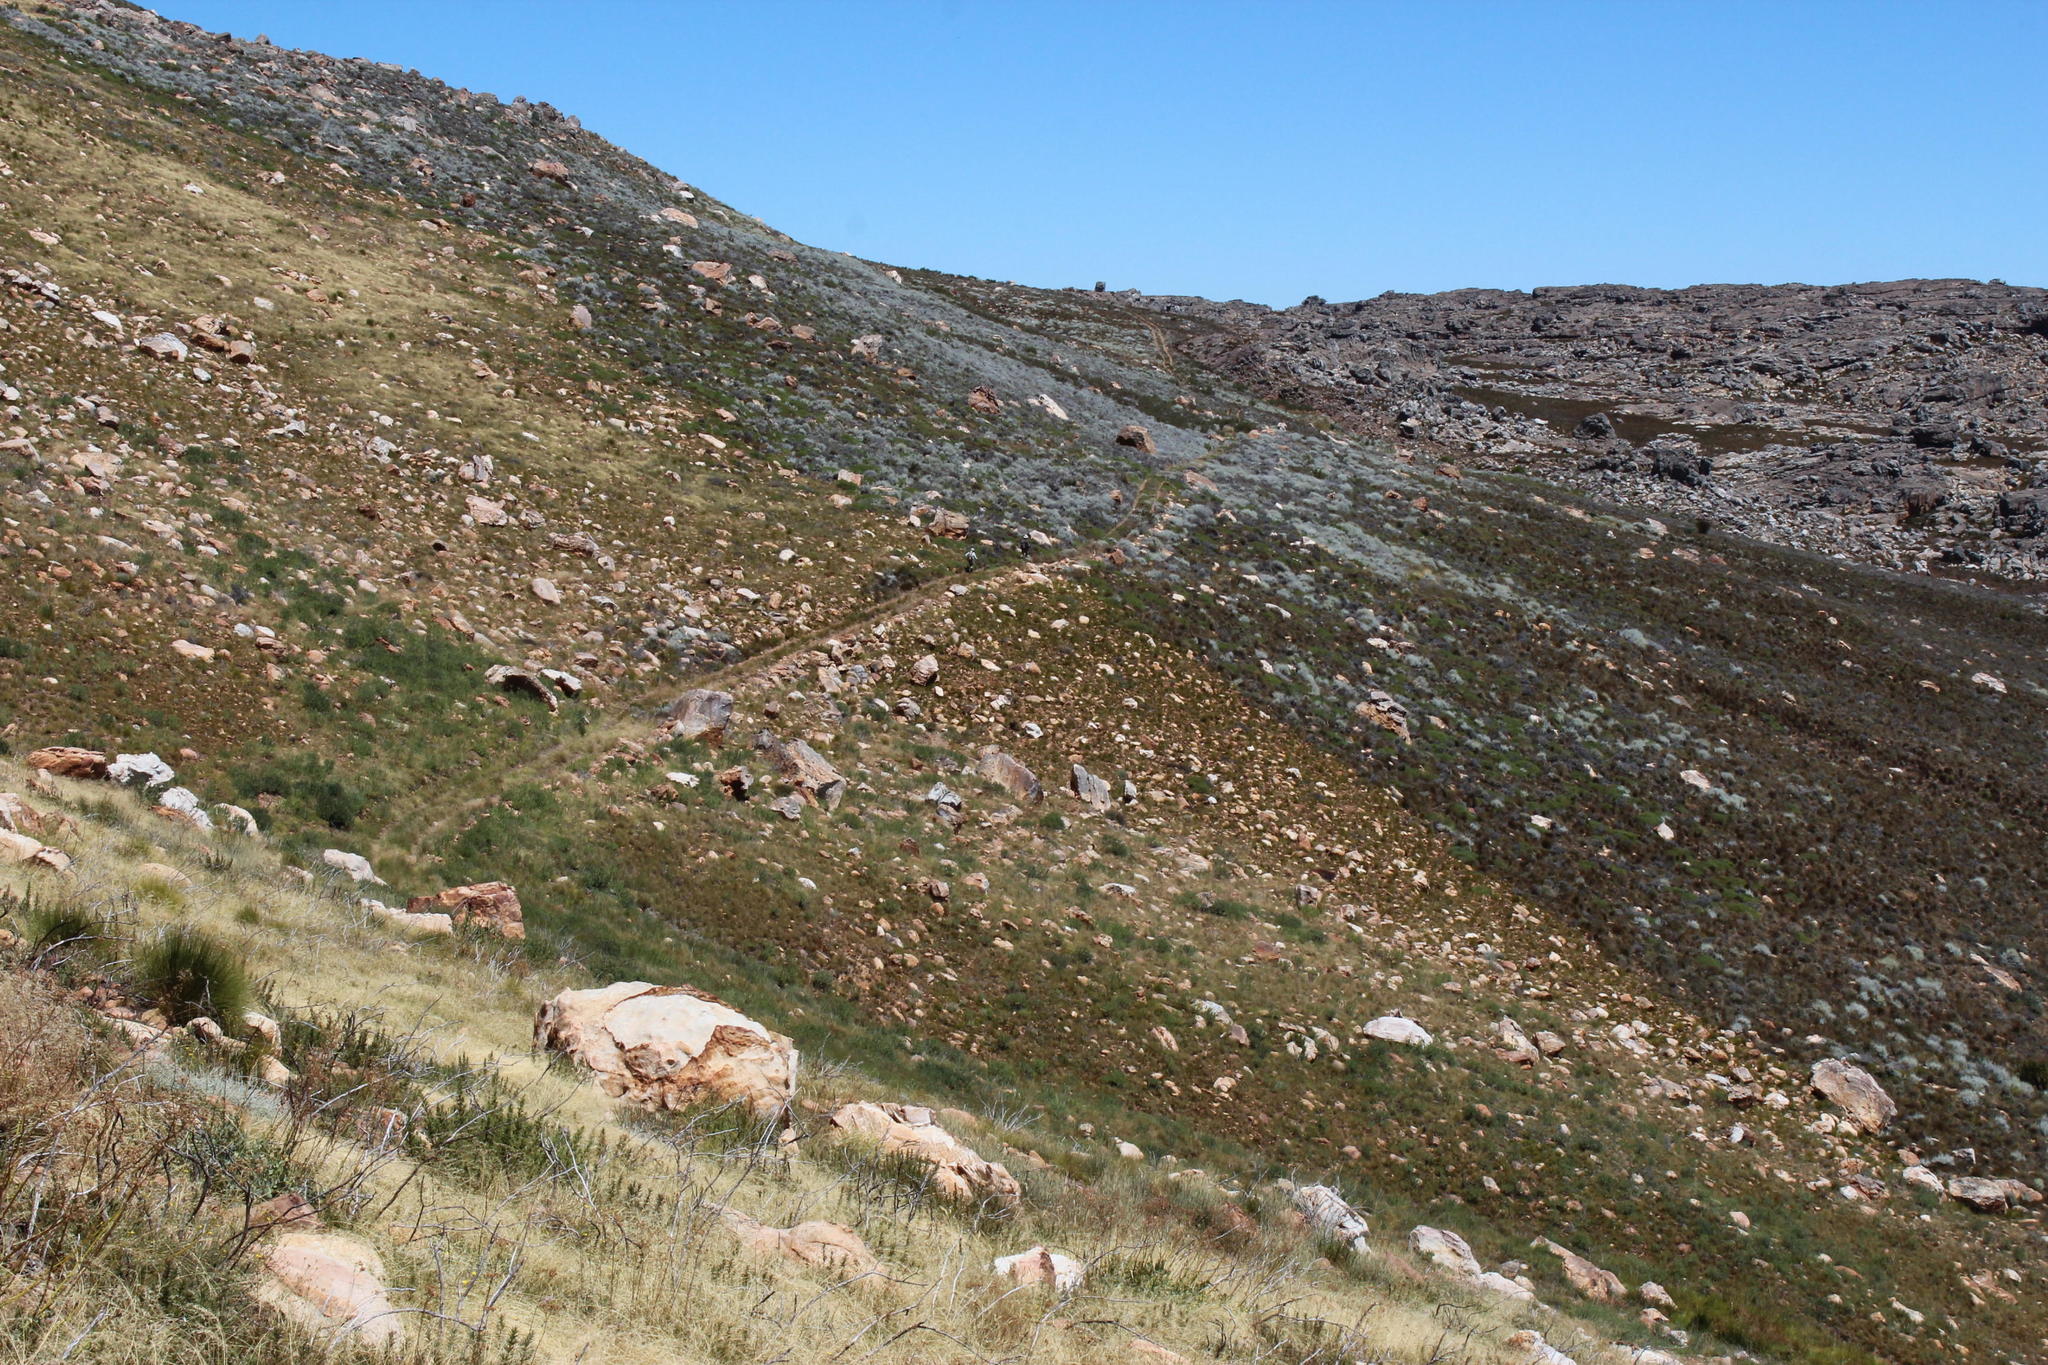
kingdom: Plantae
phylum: Tracheophyta
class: Magnoliopsida
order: Asterales
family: Asteraceae
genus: Seriphium
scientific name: Seriphium plumosum
